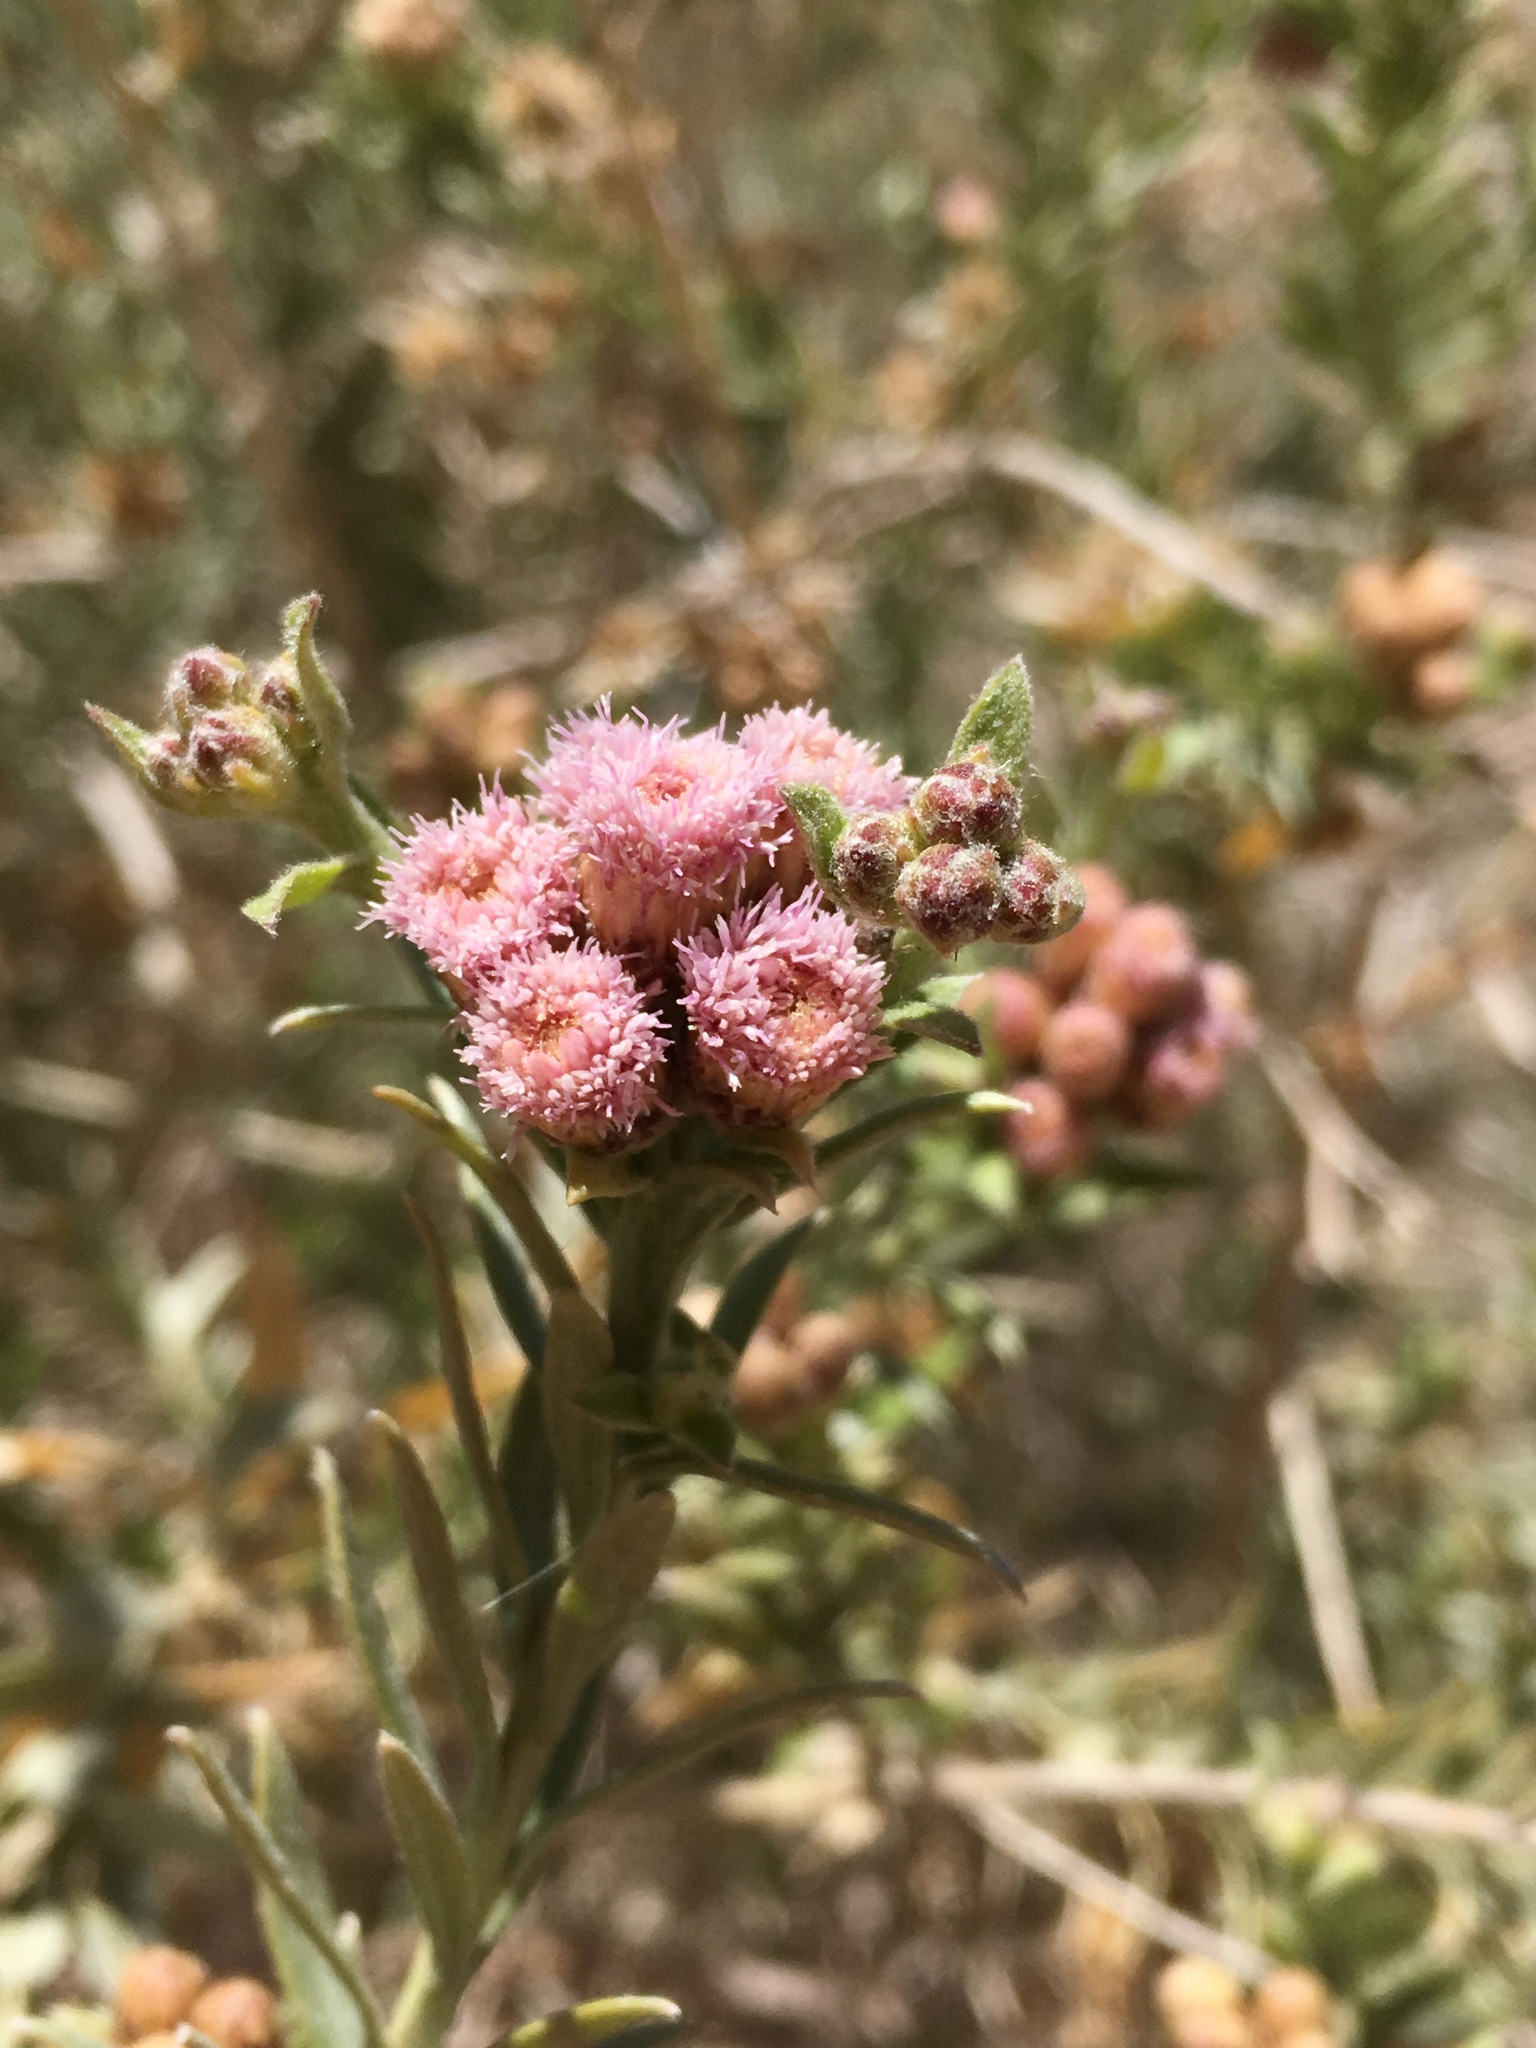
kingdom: Plantae
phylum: Tracheophyta
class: Magnoliopsida
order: Asterales
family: Asteraceae
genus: Pluchea
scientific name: Pluchea sericea
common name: Arrow-weed
